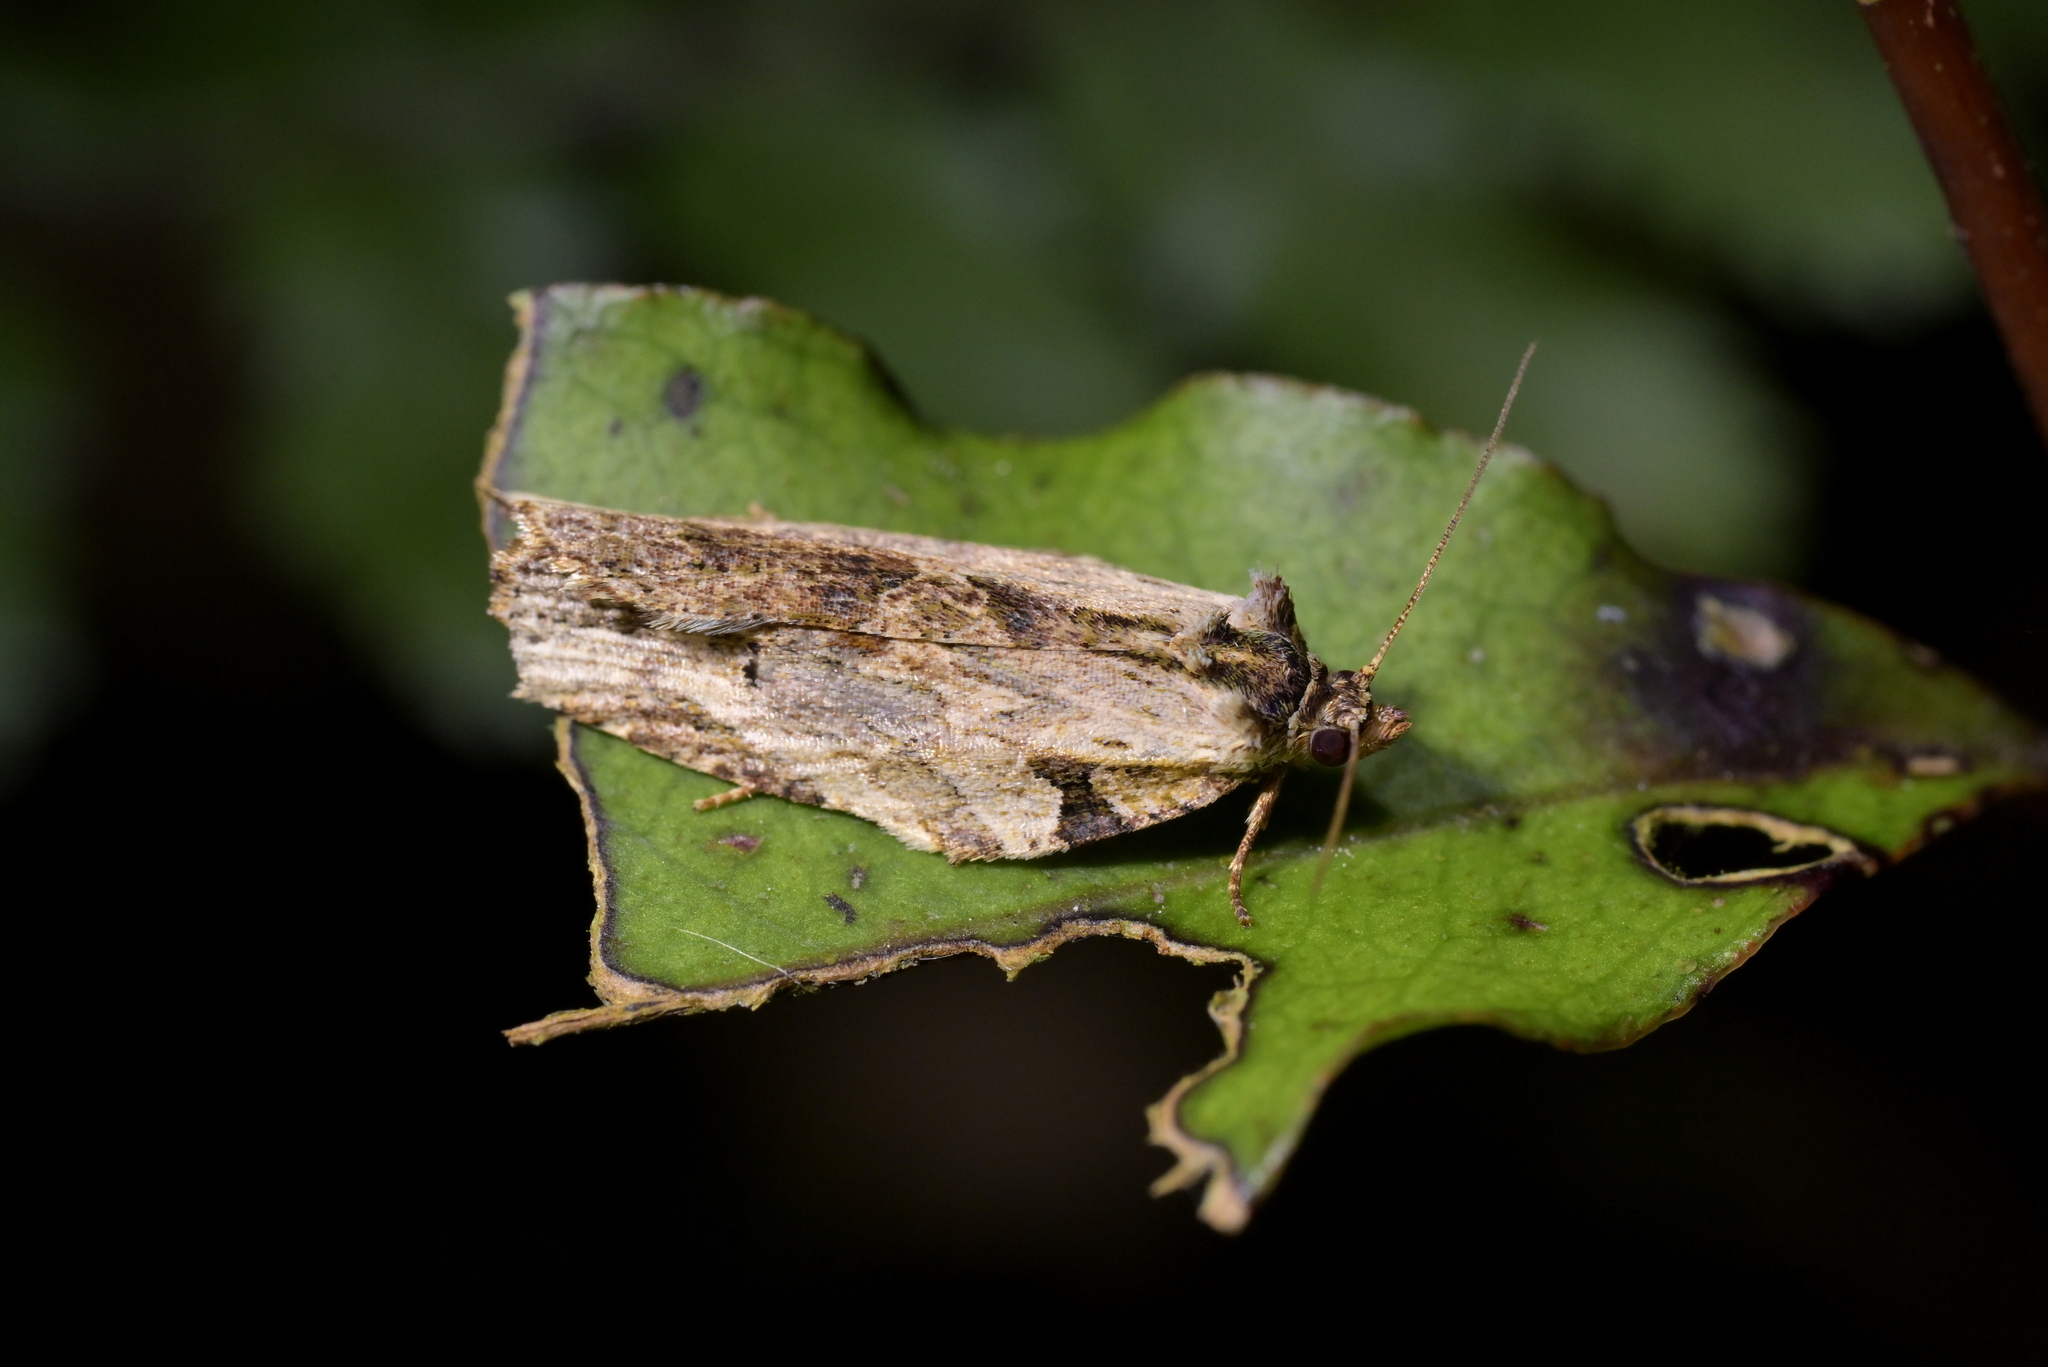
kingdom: Animalia
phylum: Arthropoda
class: Insecta
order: Lepidoptera
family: Tortricidae
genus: Epalxiphora
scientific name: Epalxiphora axenana
